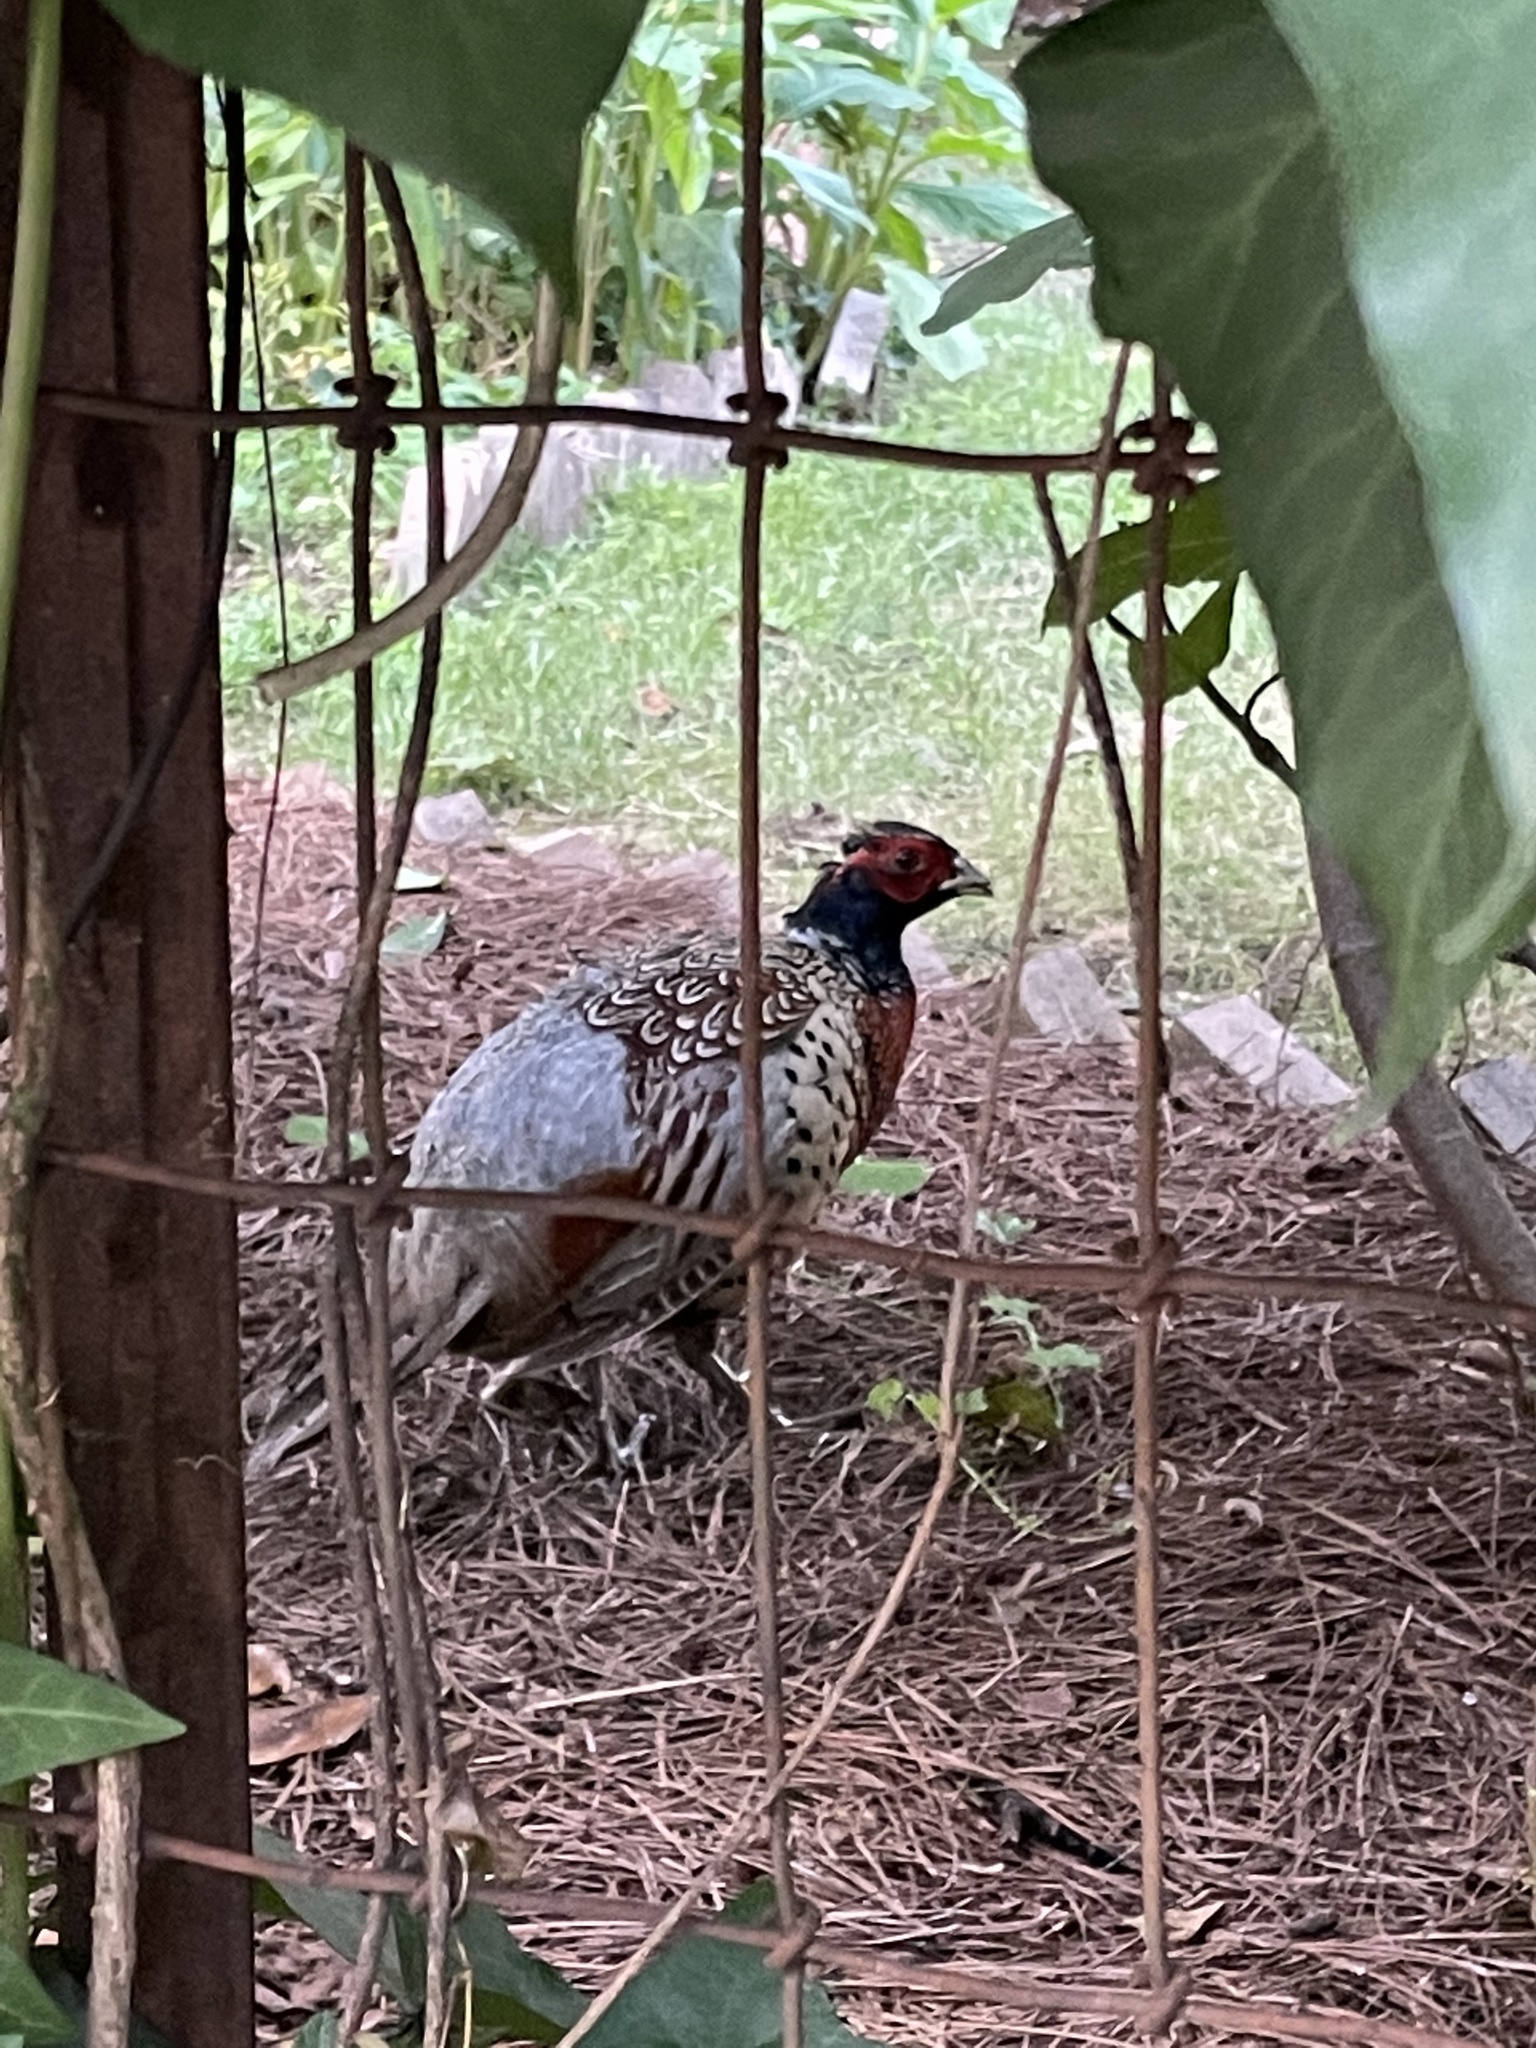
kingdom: Animalia
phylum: Chordata
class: Aves
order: Galliformes
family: Phasianidae
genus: Phasianus
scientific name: Phasianus colchicus
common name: Common pheasant
